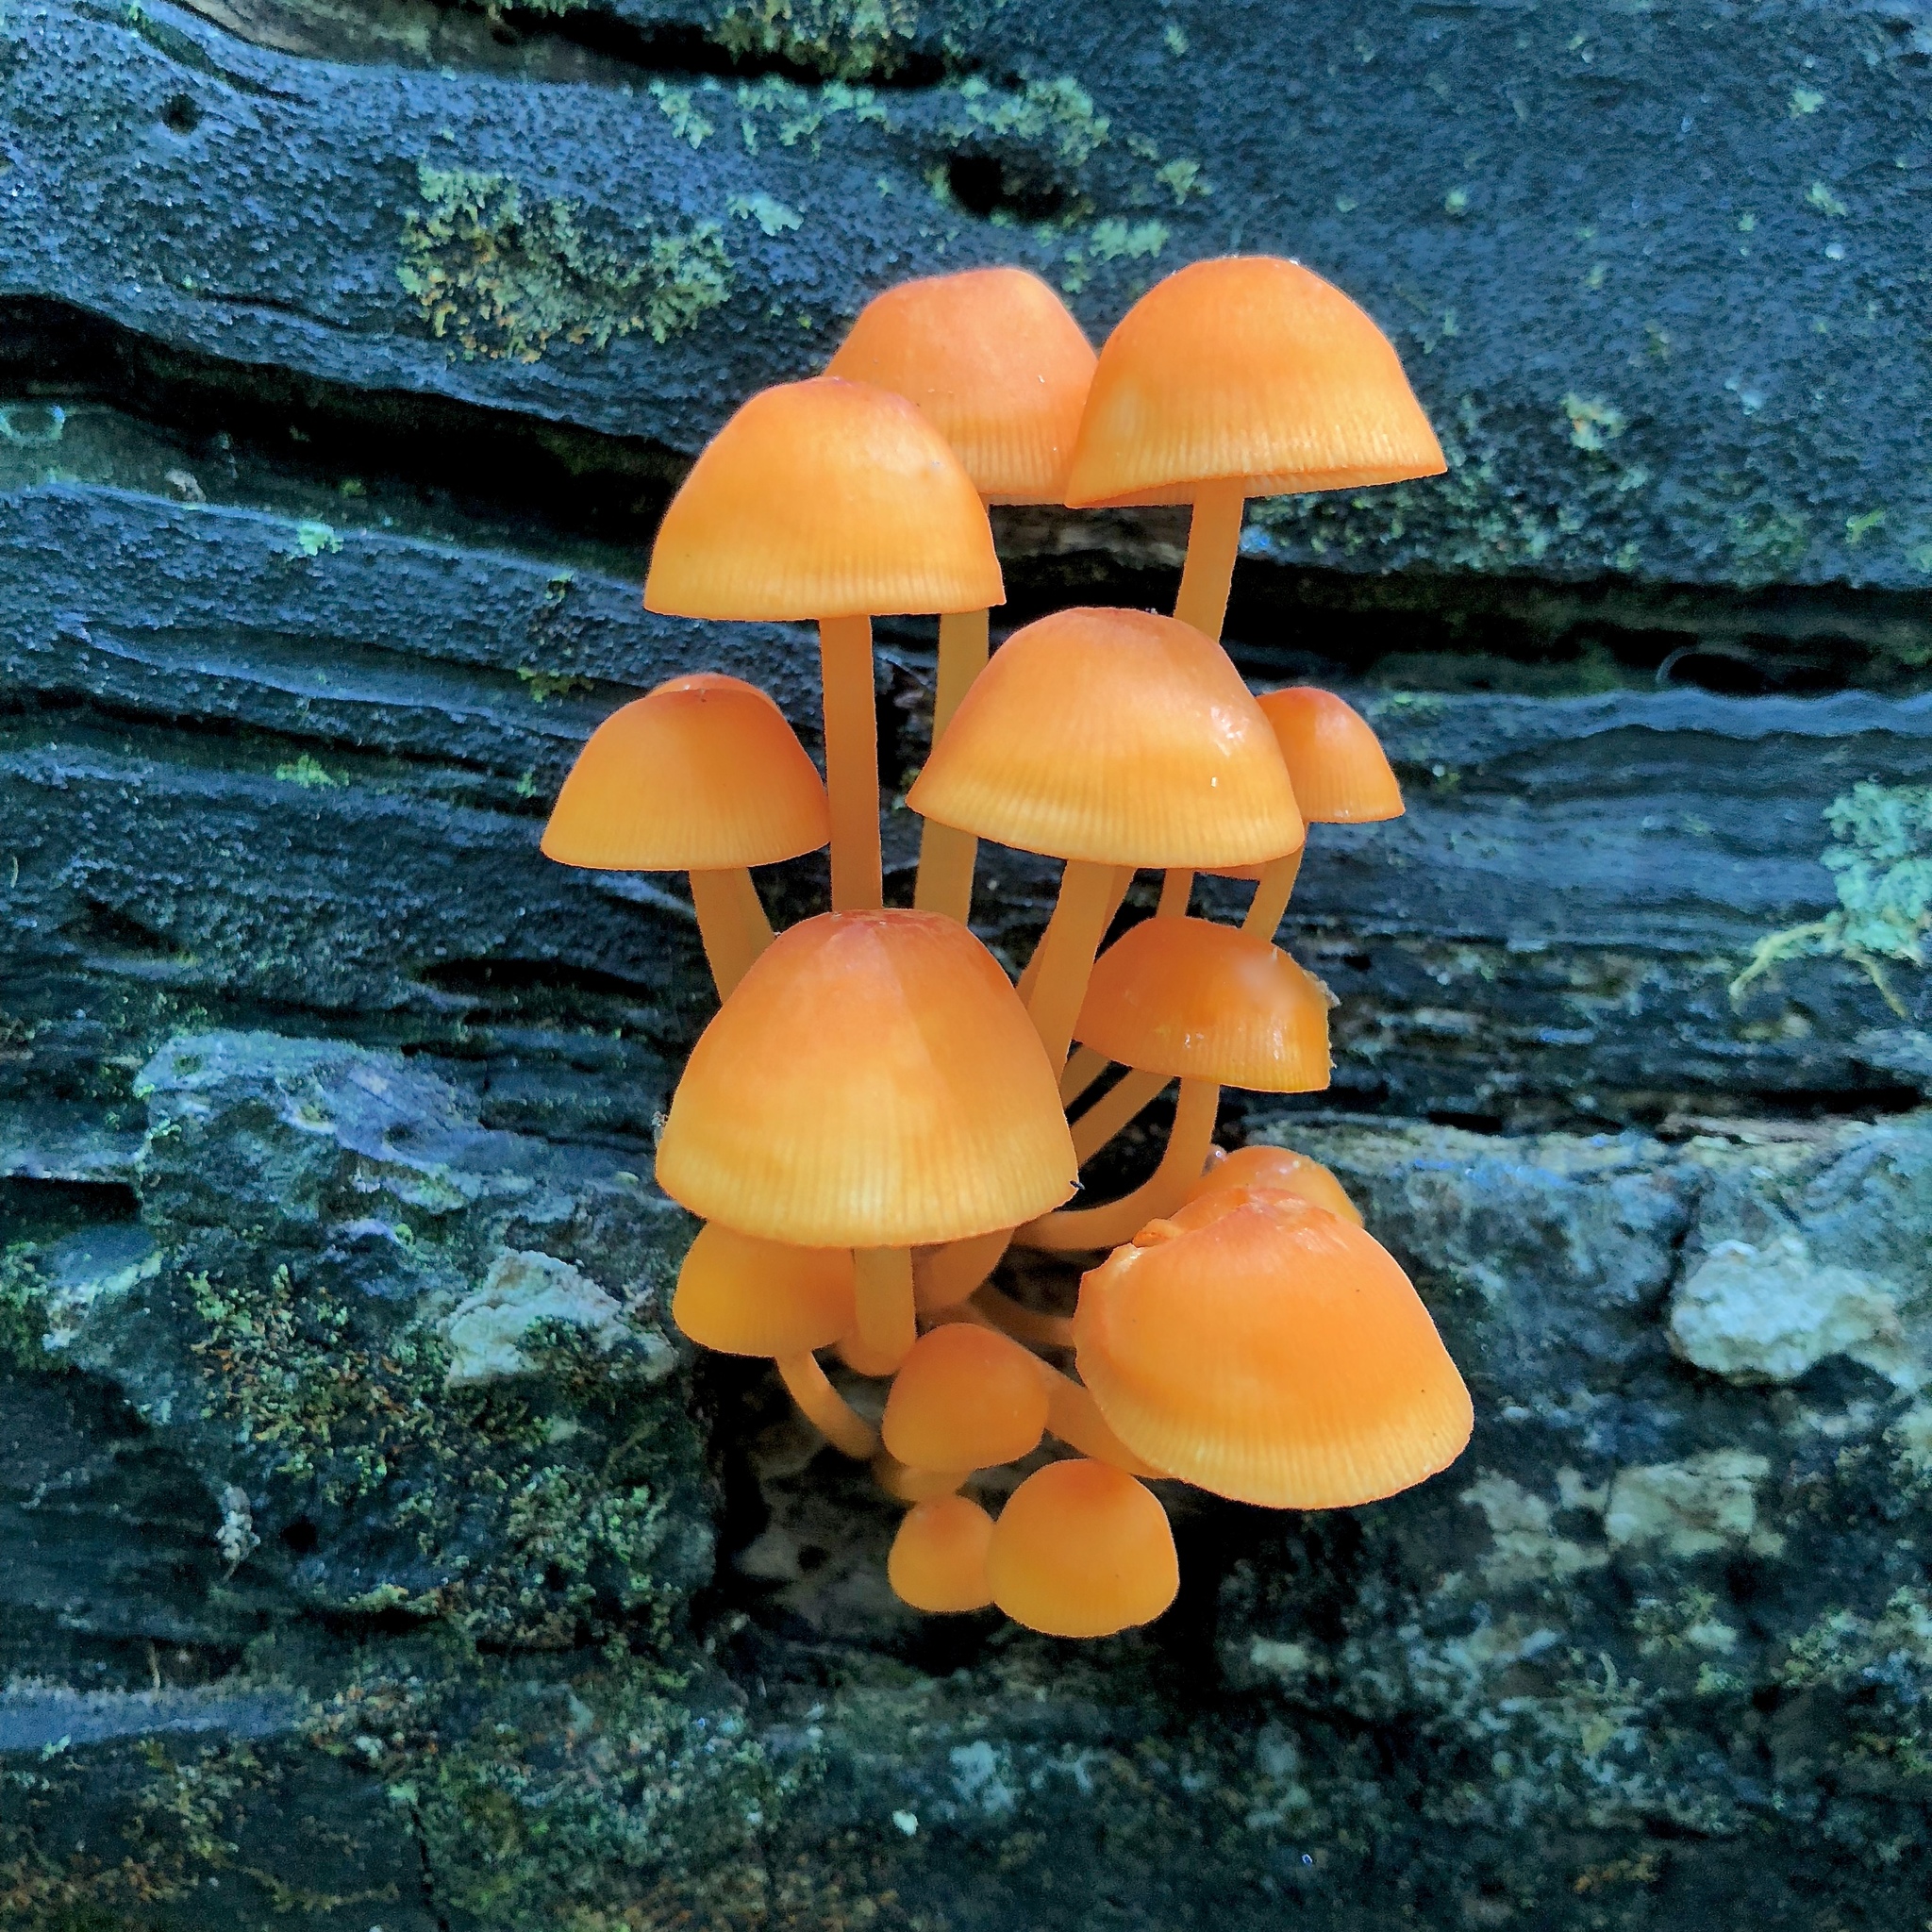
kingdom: Fungi
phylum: Basidiomycota
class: Agaricomycetes
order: Agaricales
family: Mycenaceae
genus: Mycena
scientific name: Mycena leaiana
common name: Orange mycena
